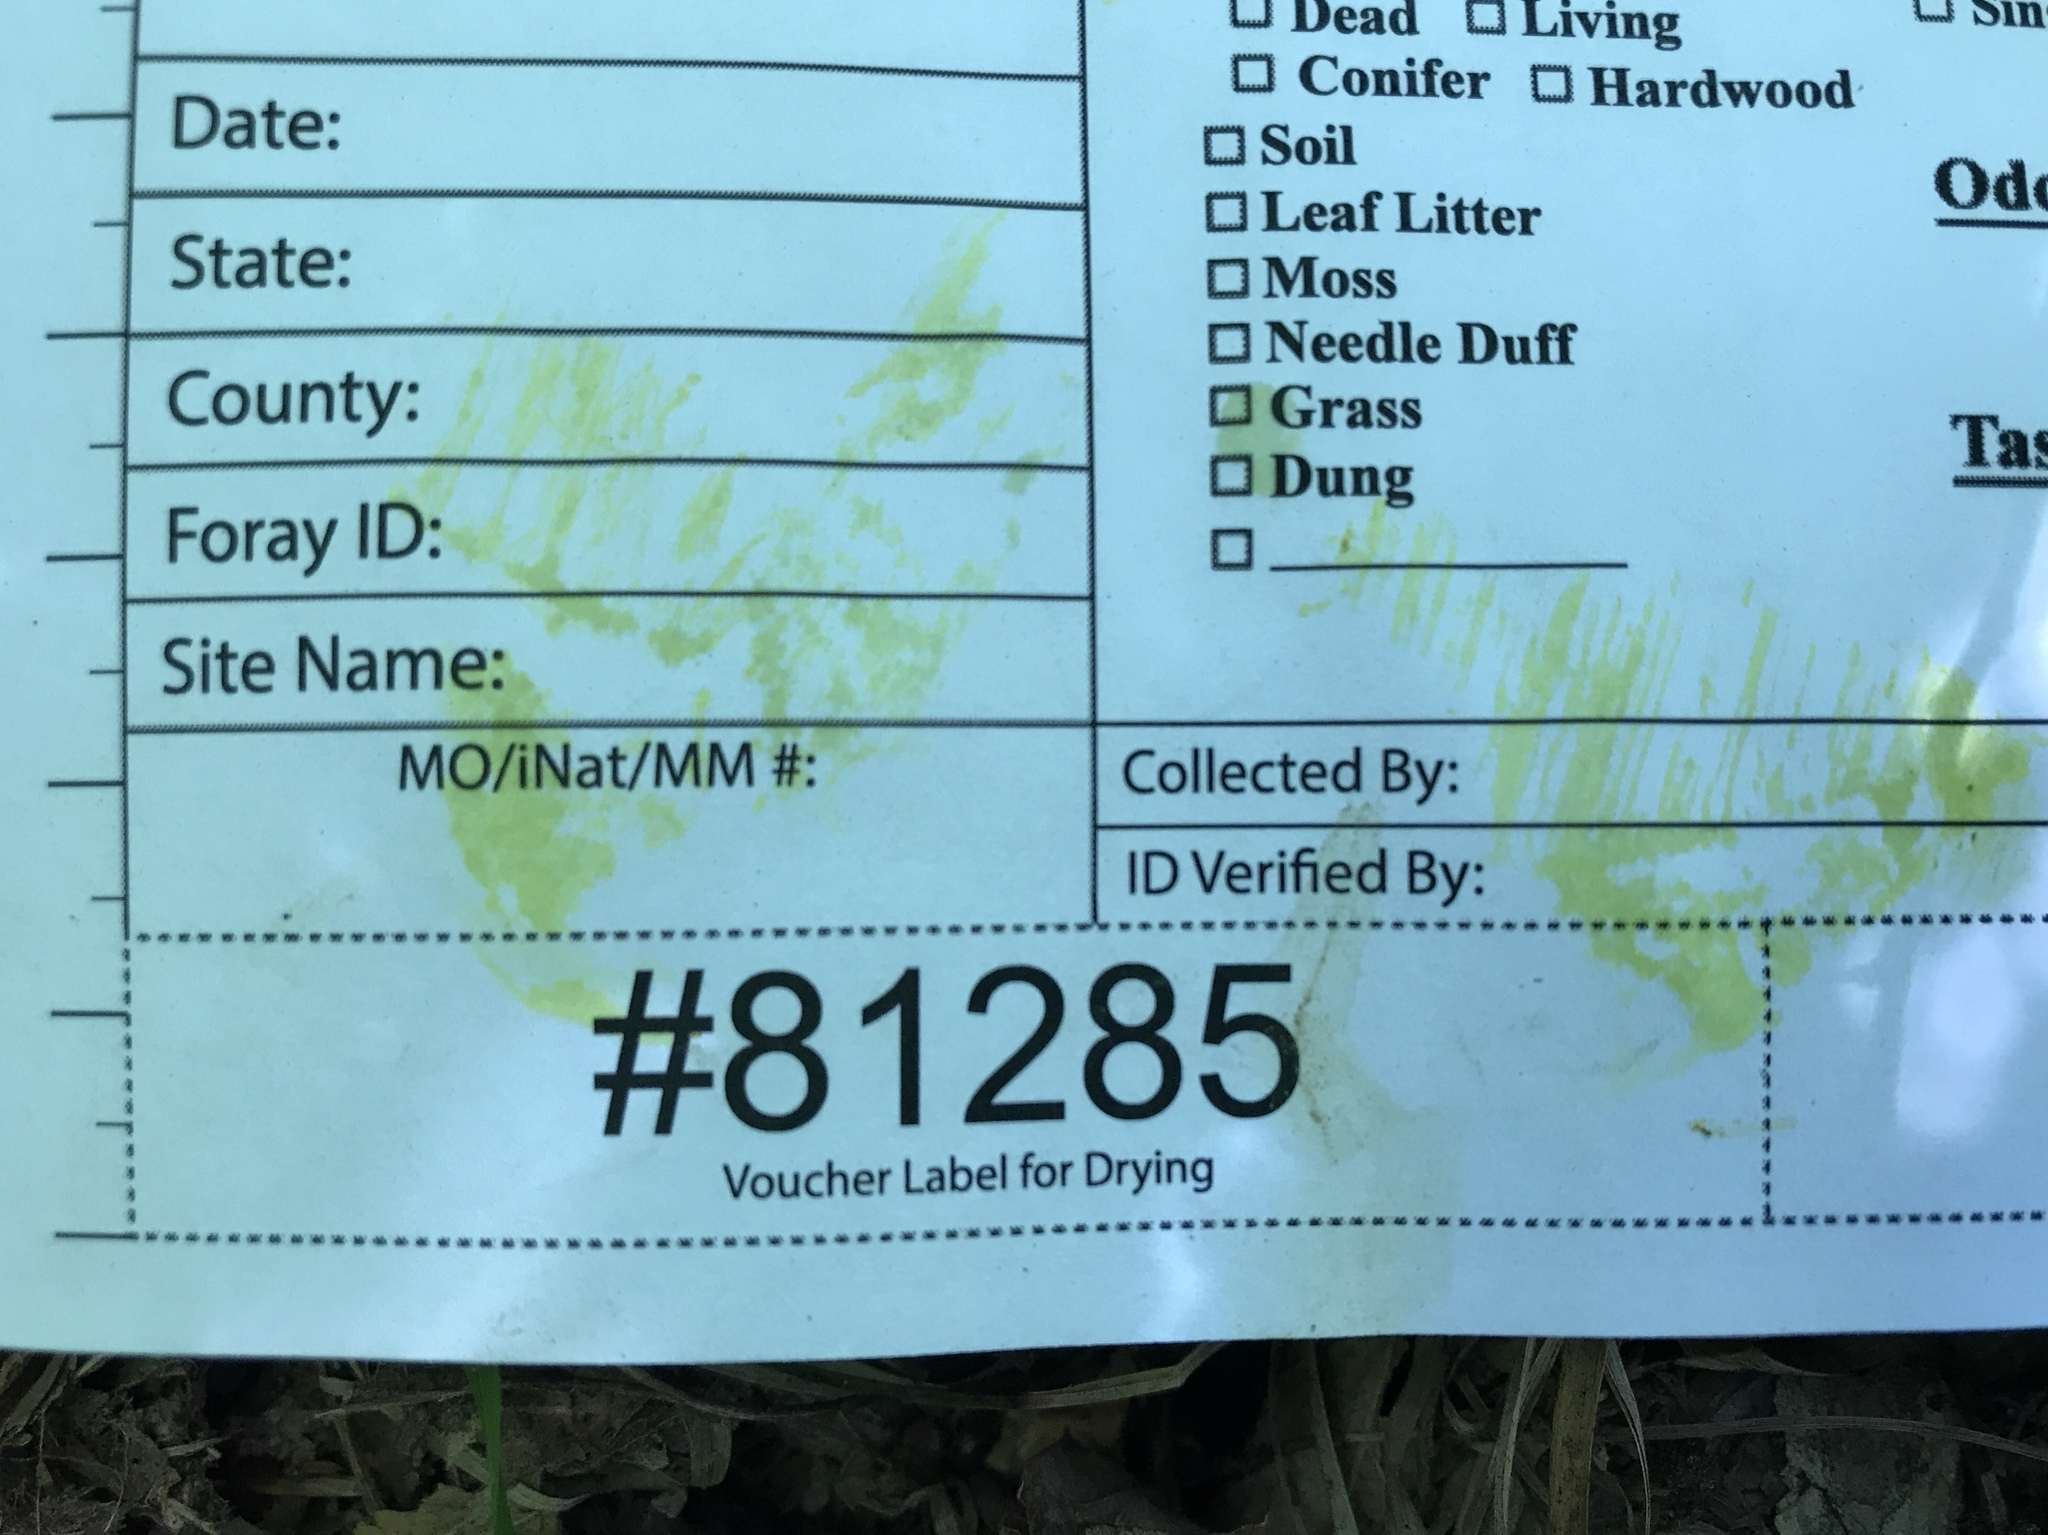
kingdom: Fungi
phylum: Basidiomycota
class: Agaricomycetes
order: Boletales
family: Boletaceae
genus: Retiboletus
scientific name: Retiboletus ornatipes
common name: Ornate-stalked bolete
